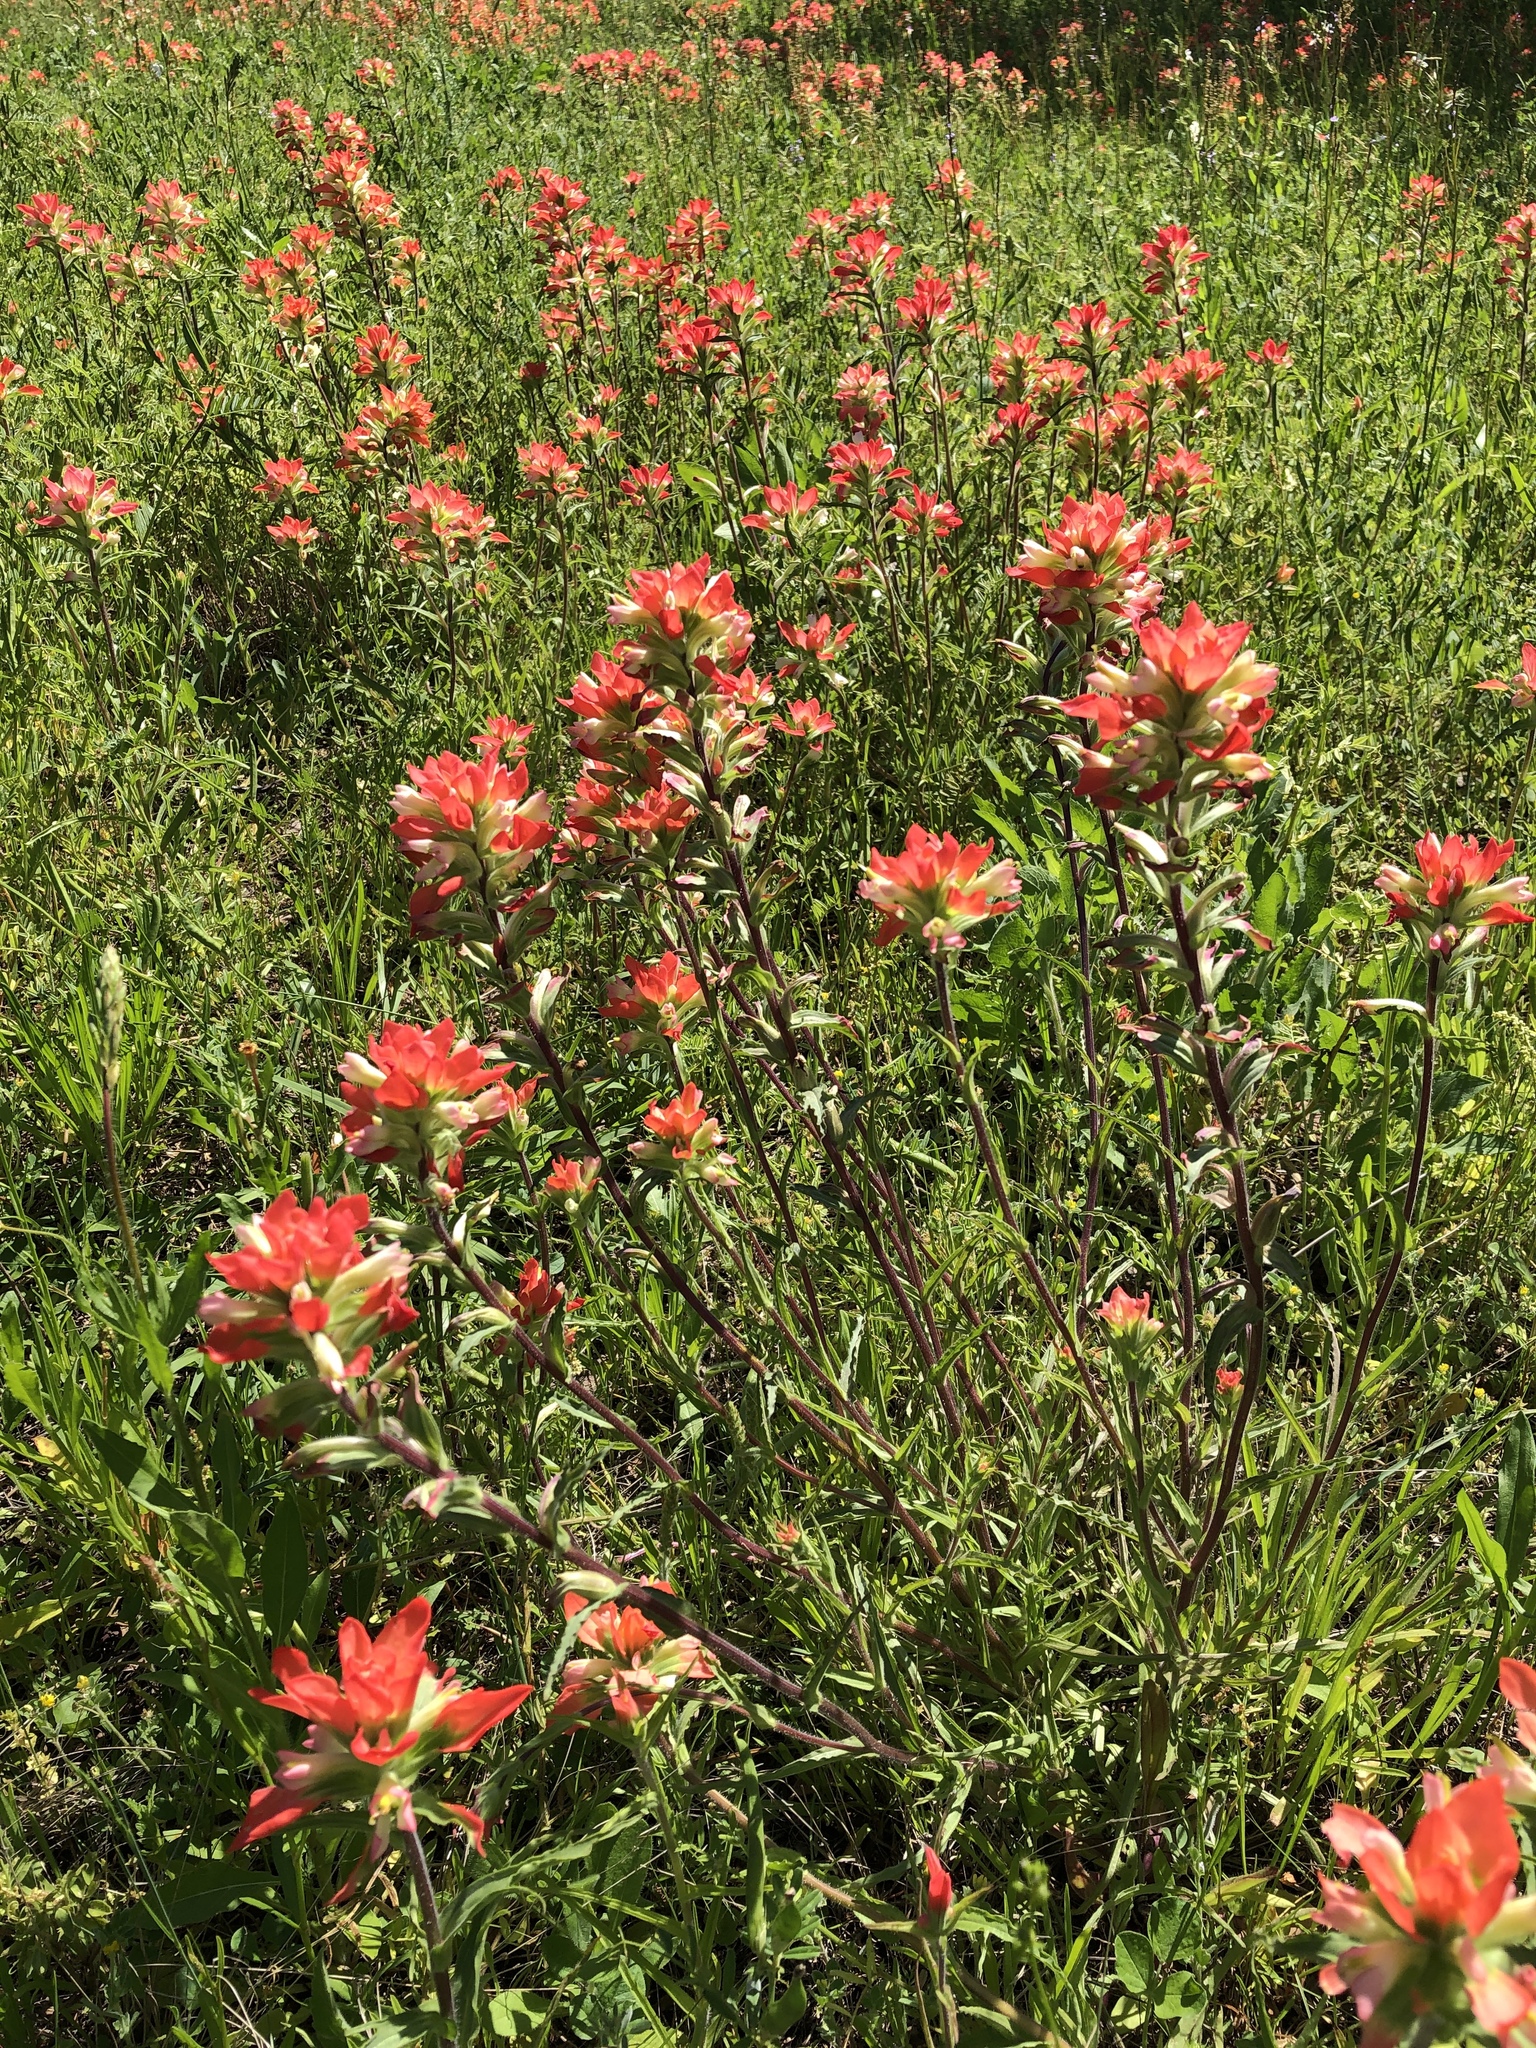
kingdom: Plantae
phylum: Tracheophyta
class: Magnoliopsida
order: Lamiales
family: Orobanchaceae
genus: Castilleja
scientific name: Castilleja indivisa
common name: Texas paintbrush
